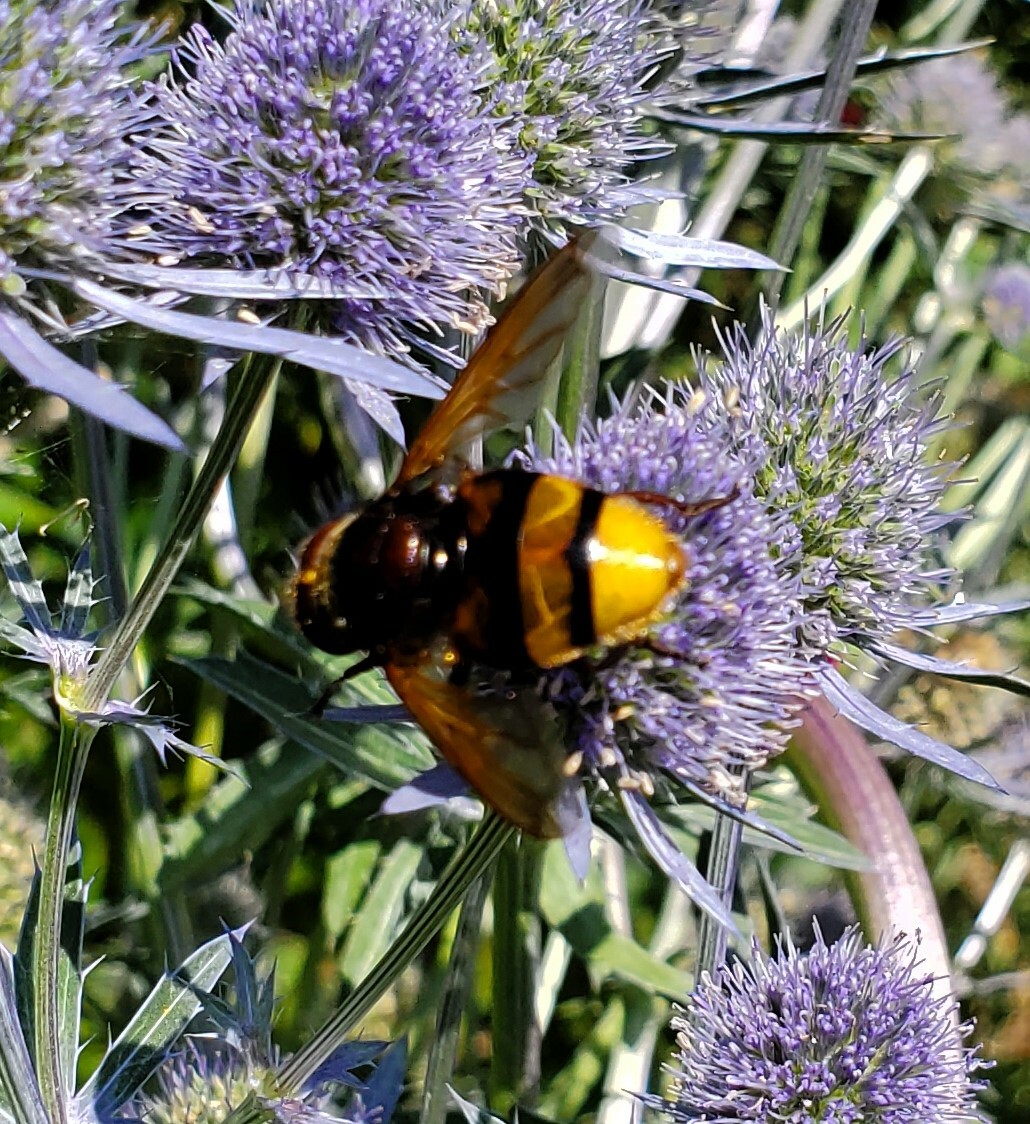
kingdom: Animalia
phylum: Arthropoda
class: Insecta
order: Diptera
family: Syrphidae
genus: Volucella
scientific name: Volucella zonaria
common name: Hornet hoverfly
